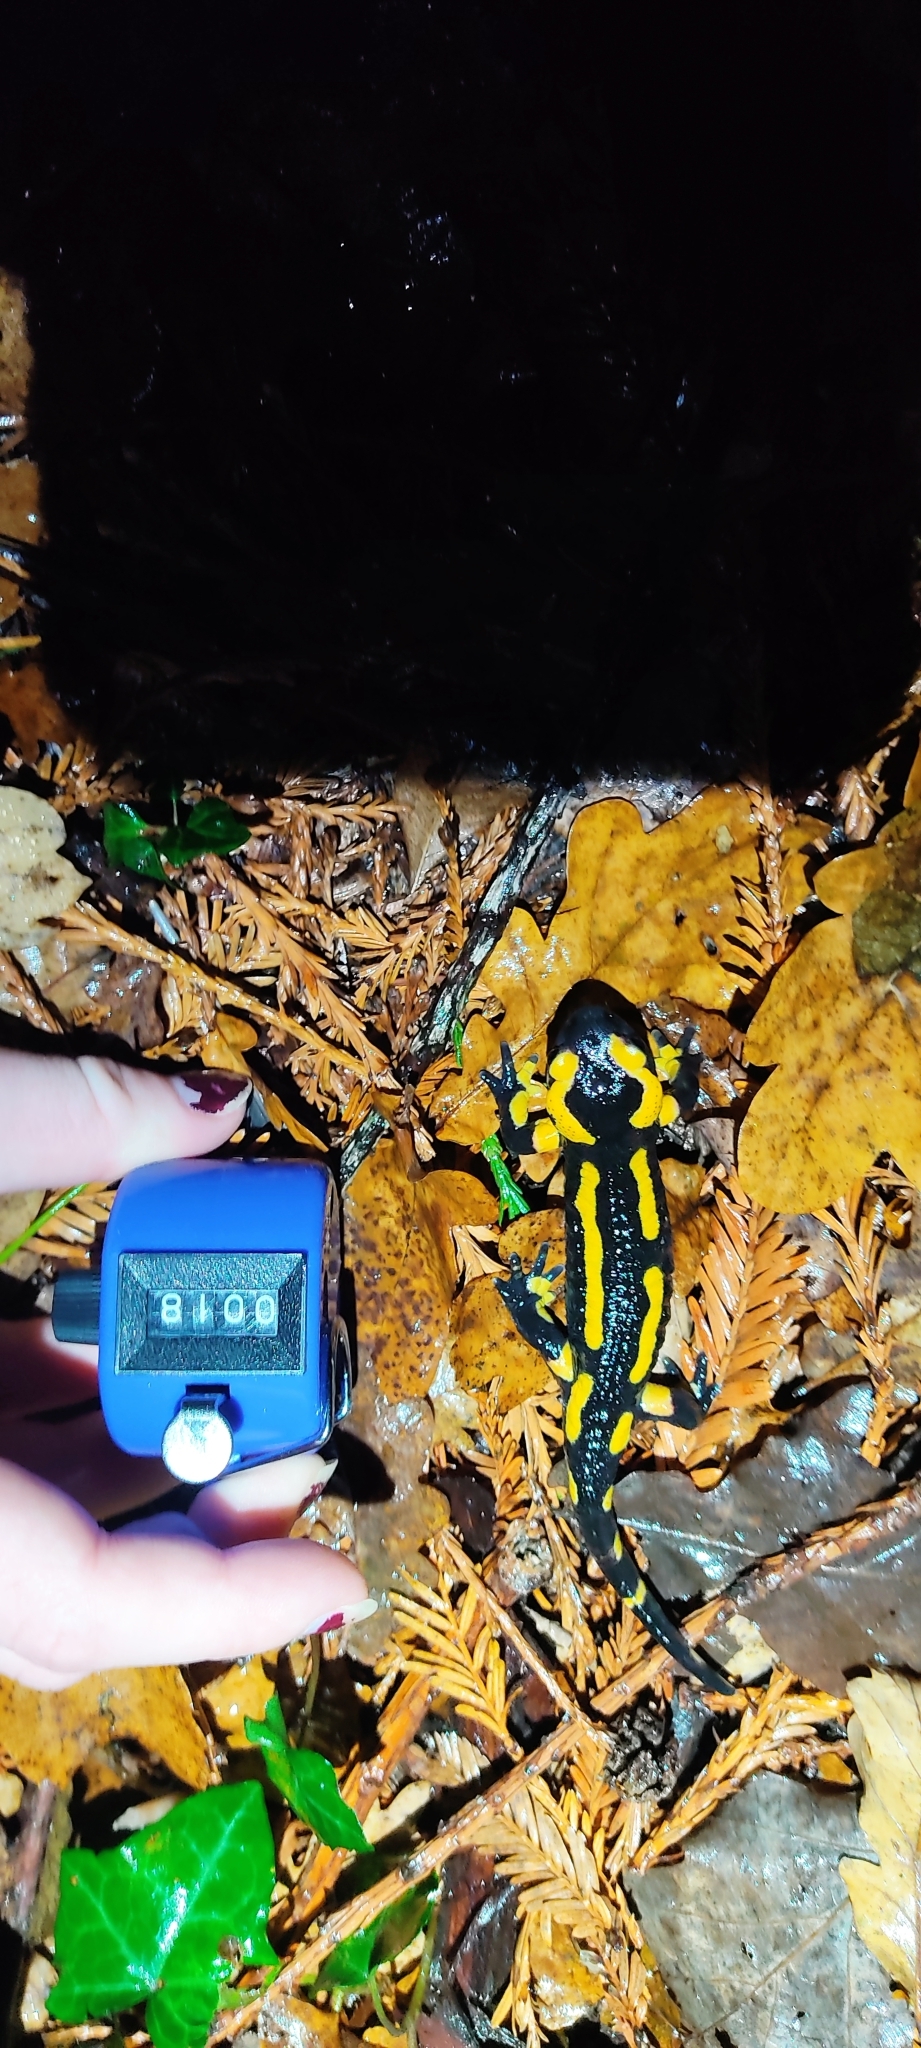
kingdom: Animalia
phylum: Chordata
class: Amphibia
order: Caudata
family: Salamandridae
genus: Salamandra
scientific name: Salamandra salamandra
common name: Fire salamander
